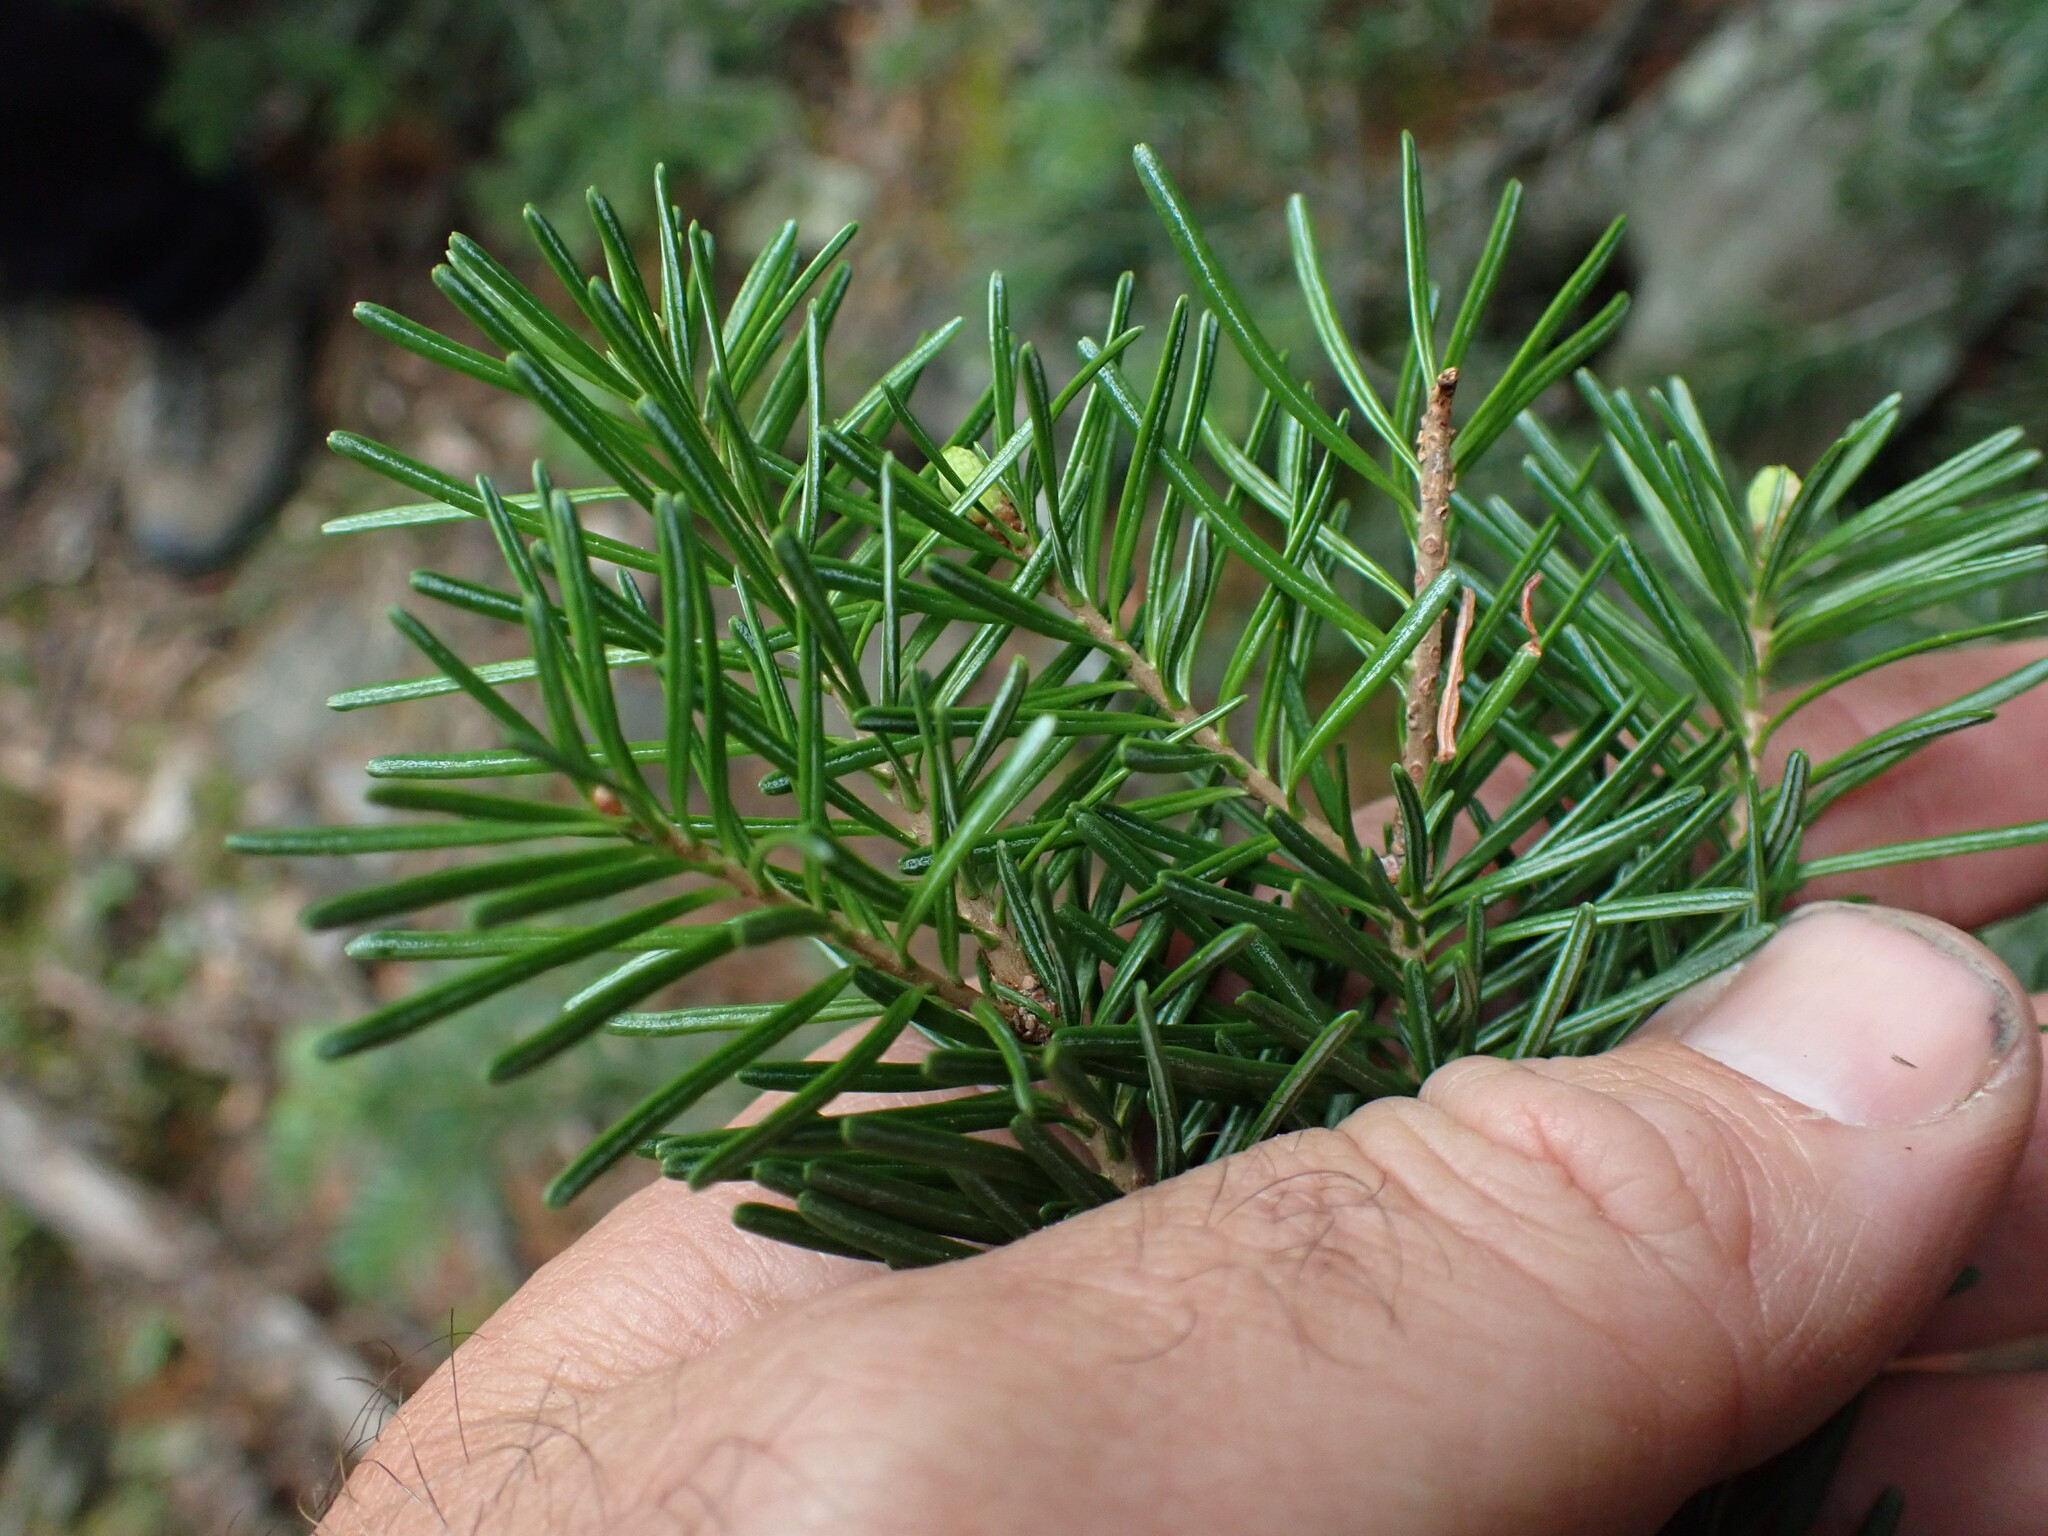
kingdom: Plantae
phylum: Tracheophyta
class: Pinopsida
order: Pinales
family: Pinaceae
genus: Abies
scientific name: Abies lasiocarpa
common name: Subalpine fir
